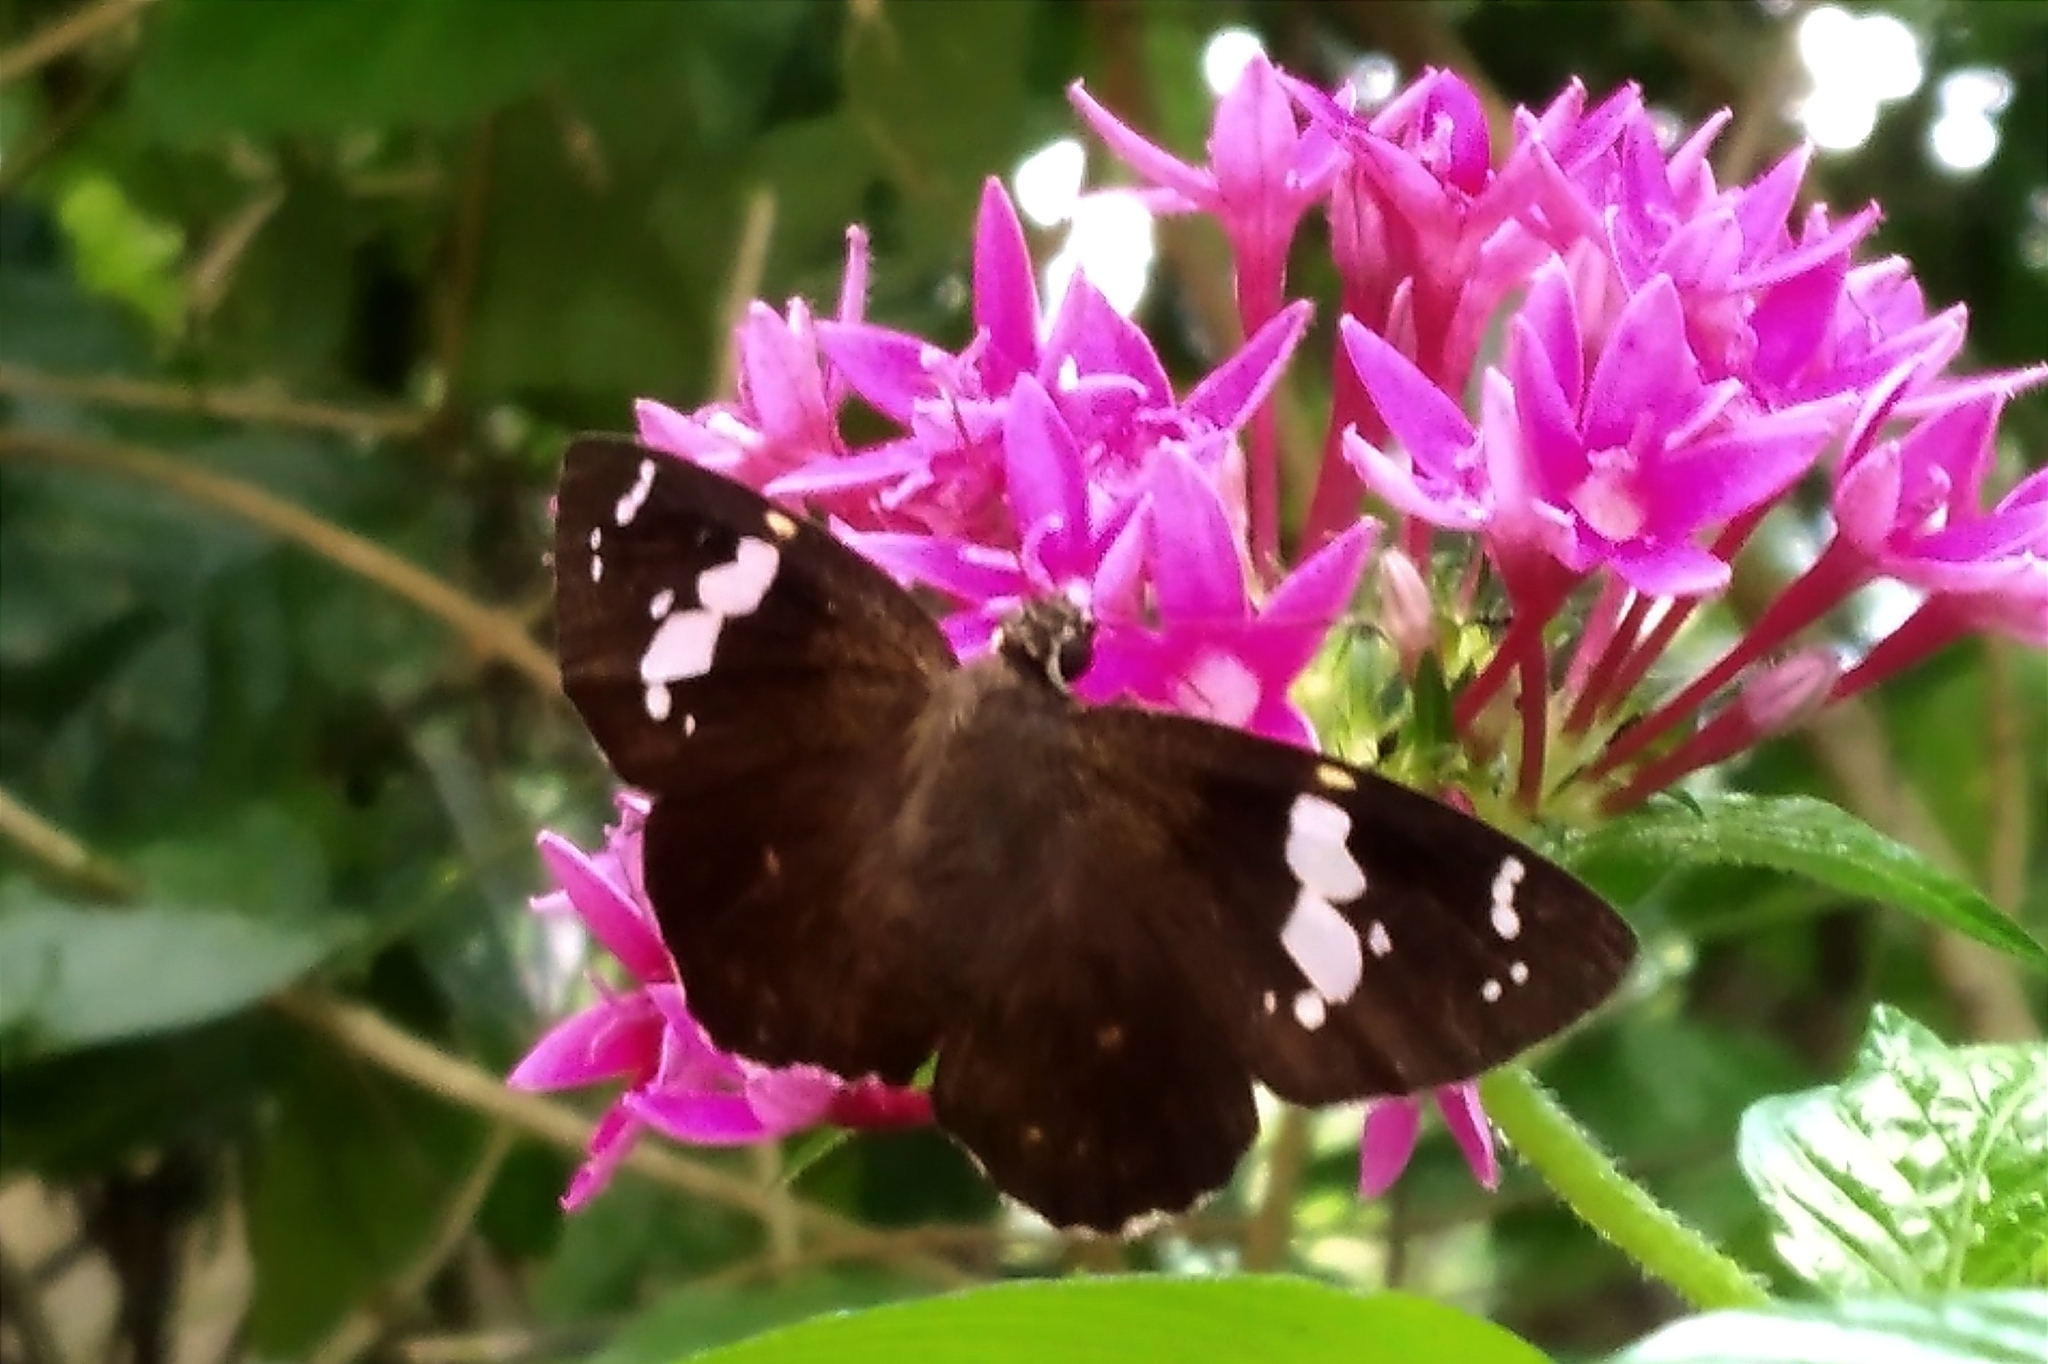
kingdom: Animalia
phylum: Arthropoda
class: Insecta
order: Lepidoptera
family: Hesperiidae
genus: Celaenorrhinus
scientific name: Celaenorrhinus leucocera
